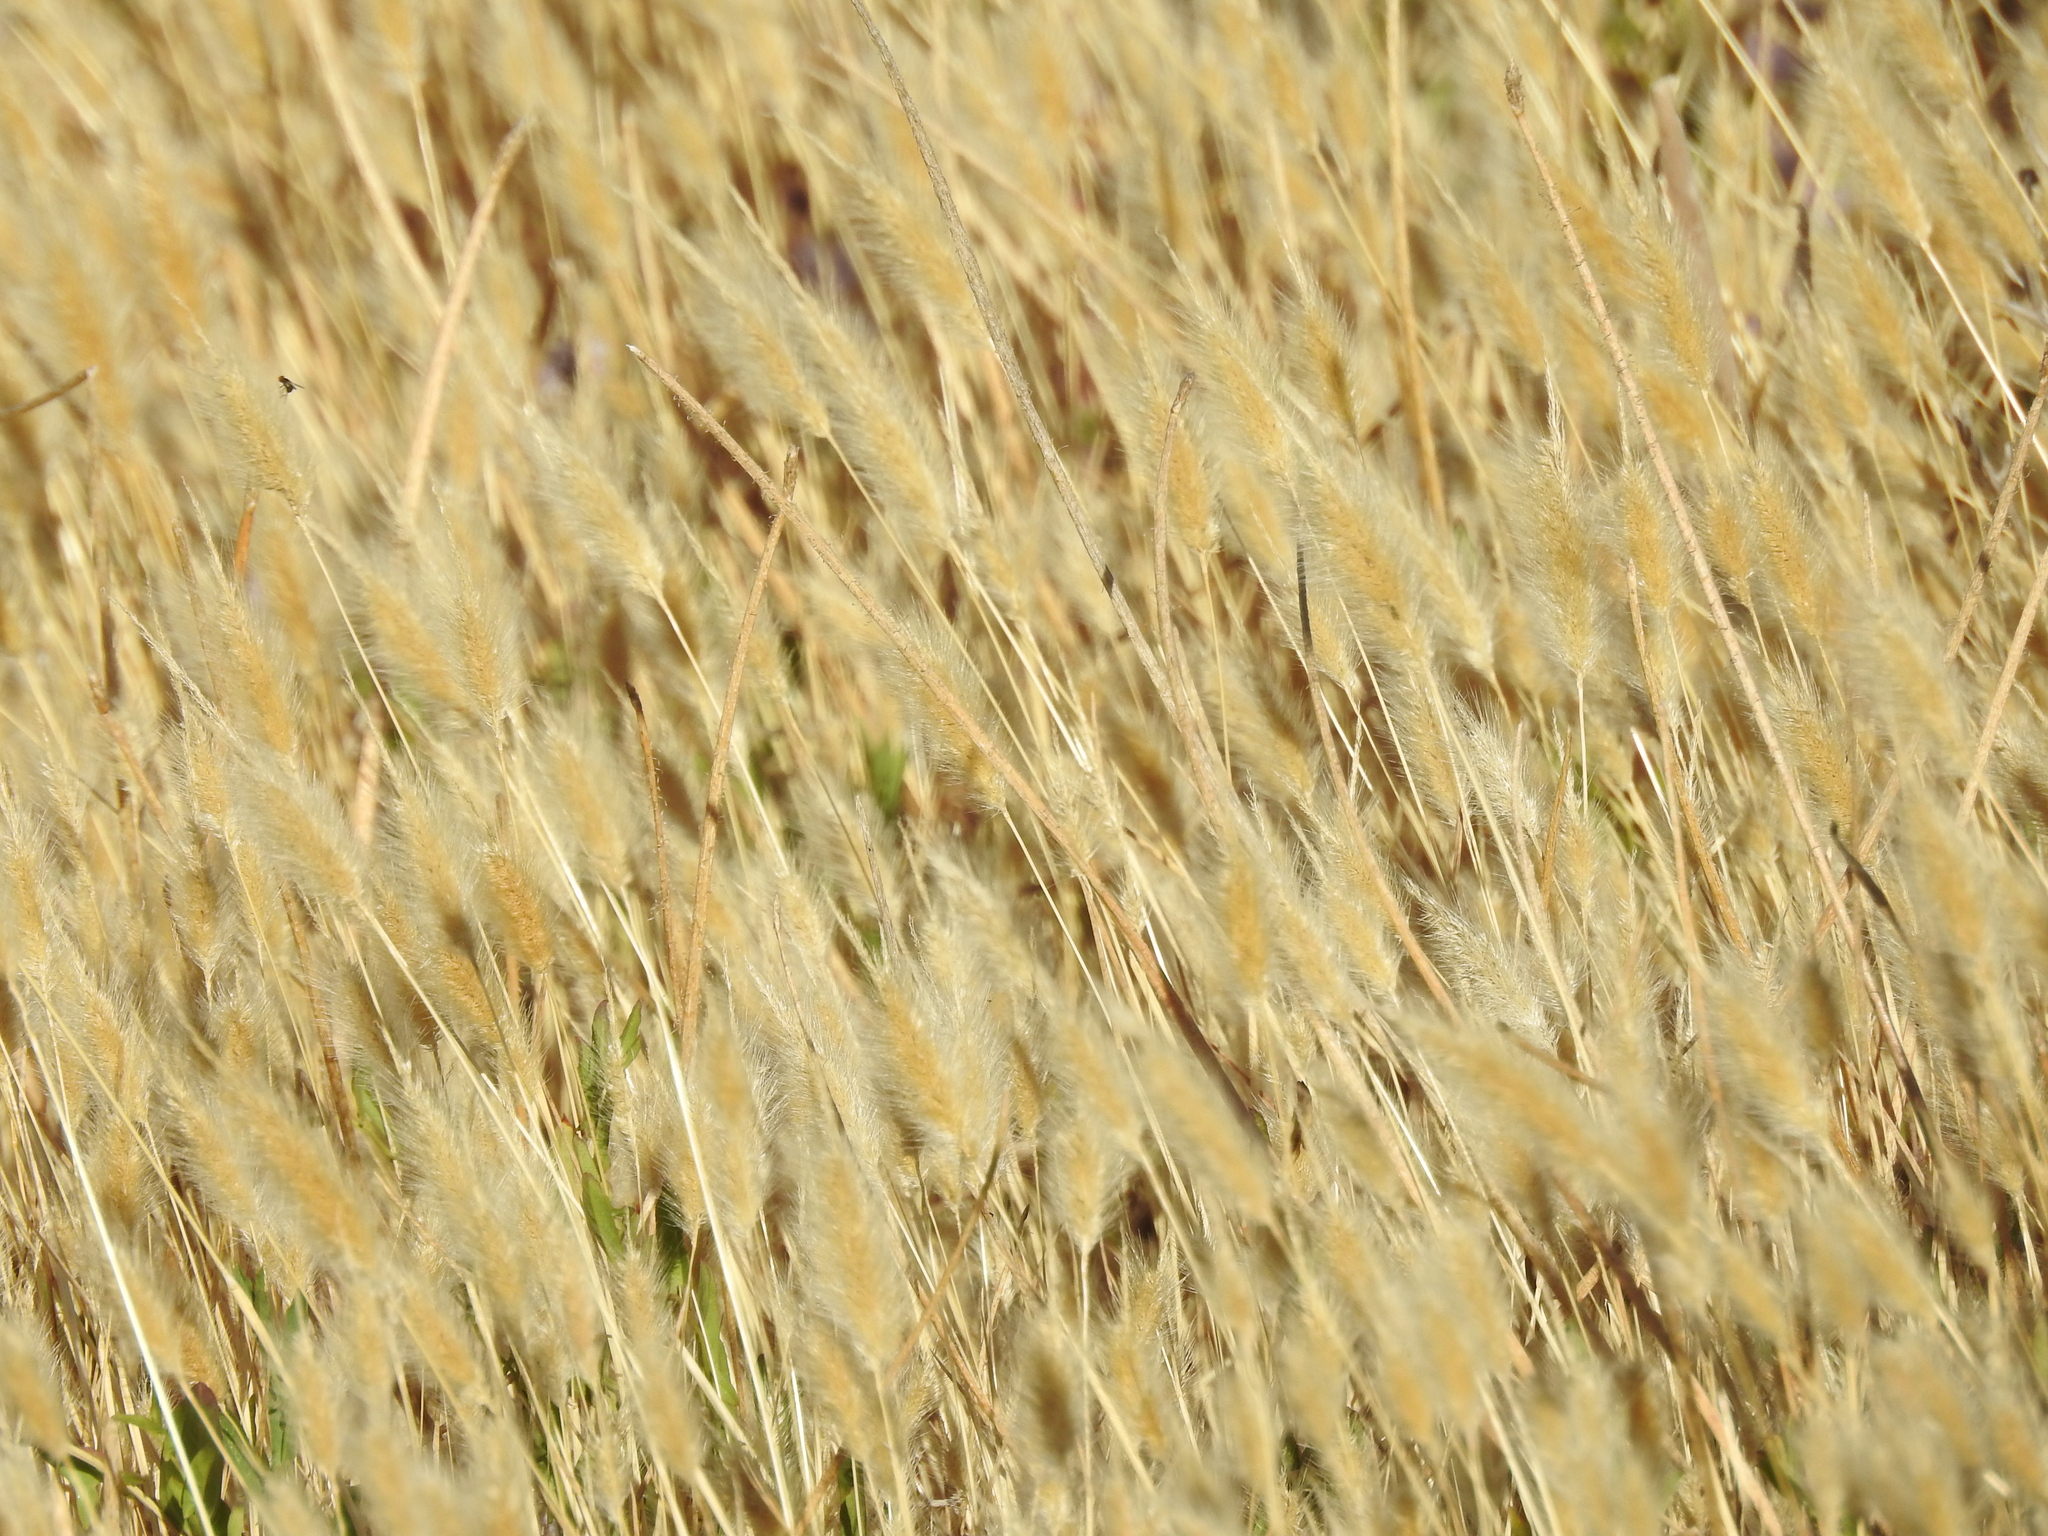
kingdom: Plantae
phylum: Tracheophyta
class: Liliopsida
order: Poales
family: Poaceae
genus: Polypogon
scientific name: Polypogon monspeliensis
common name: Annual rabbitsfoot grass
